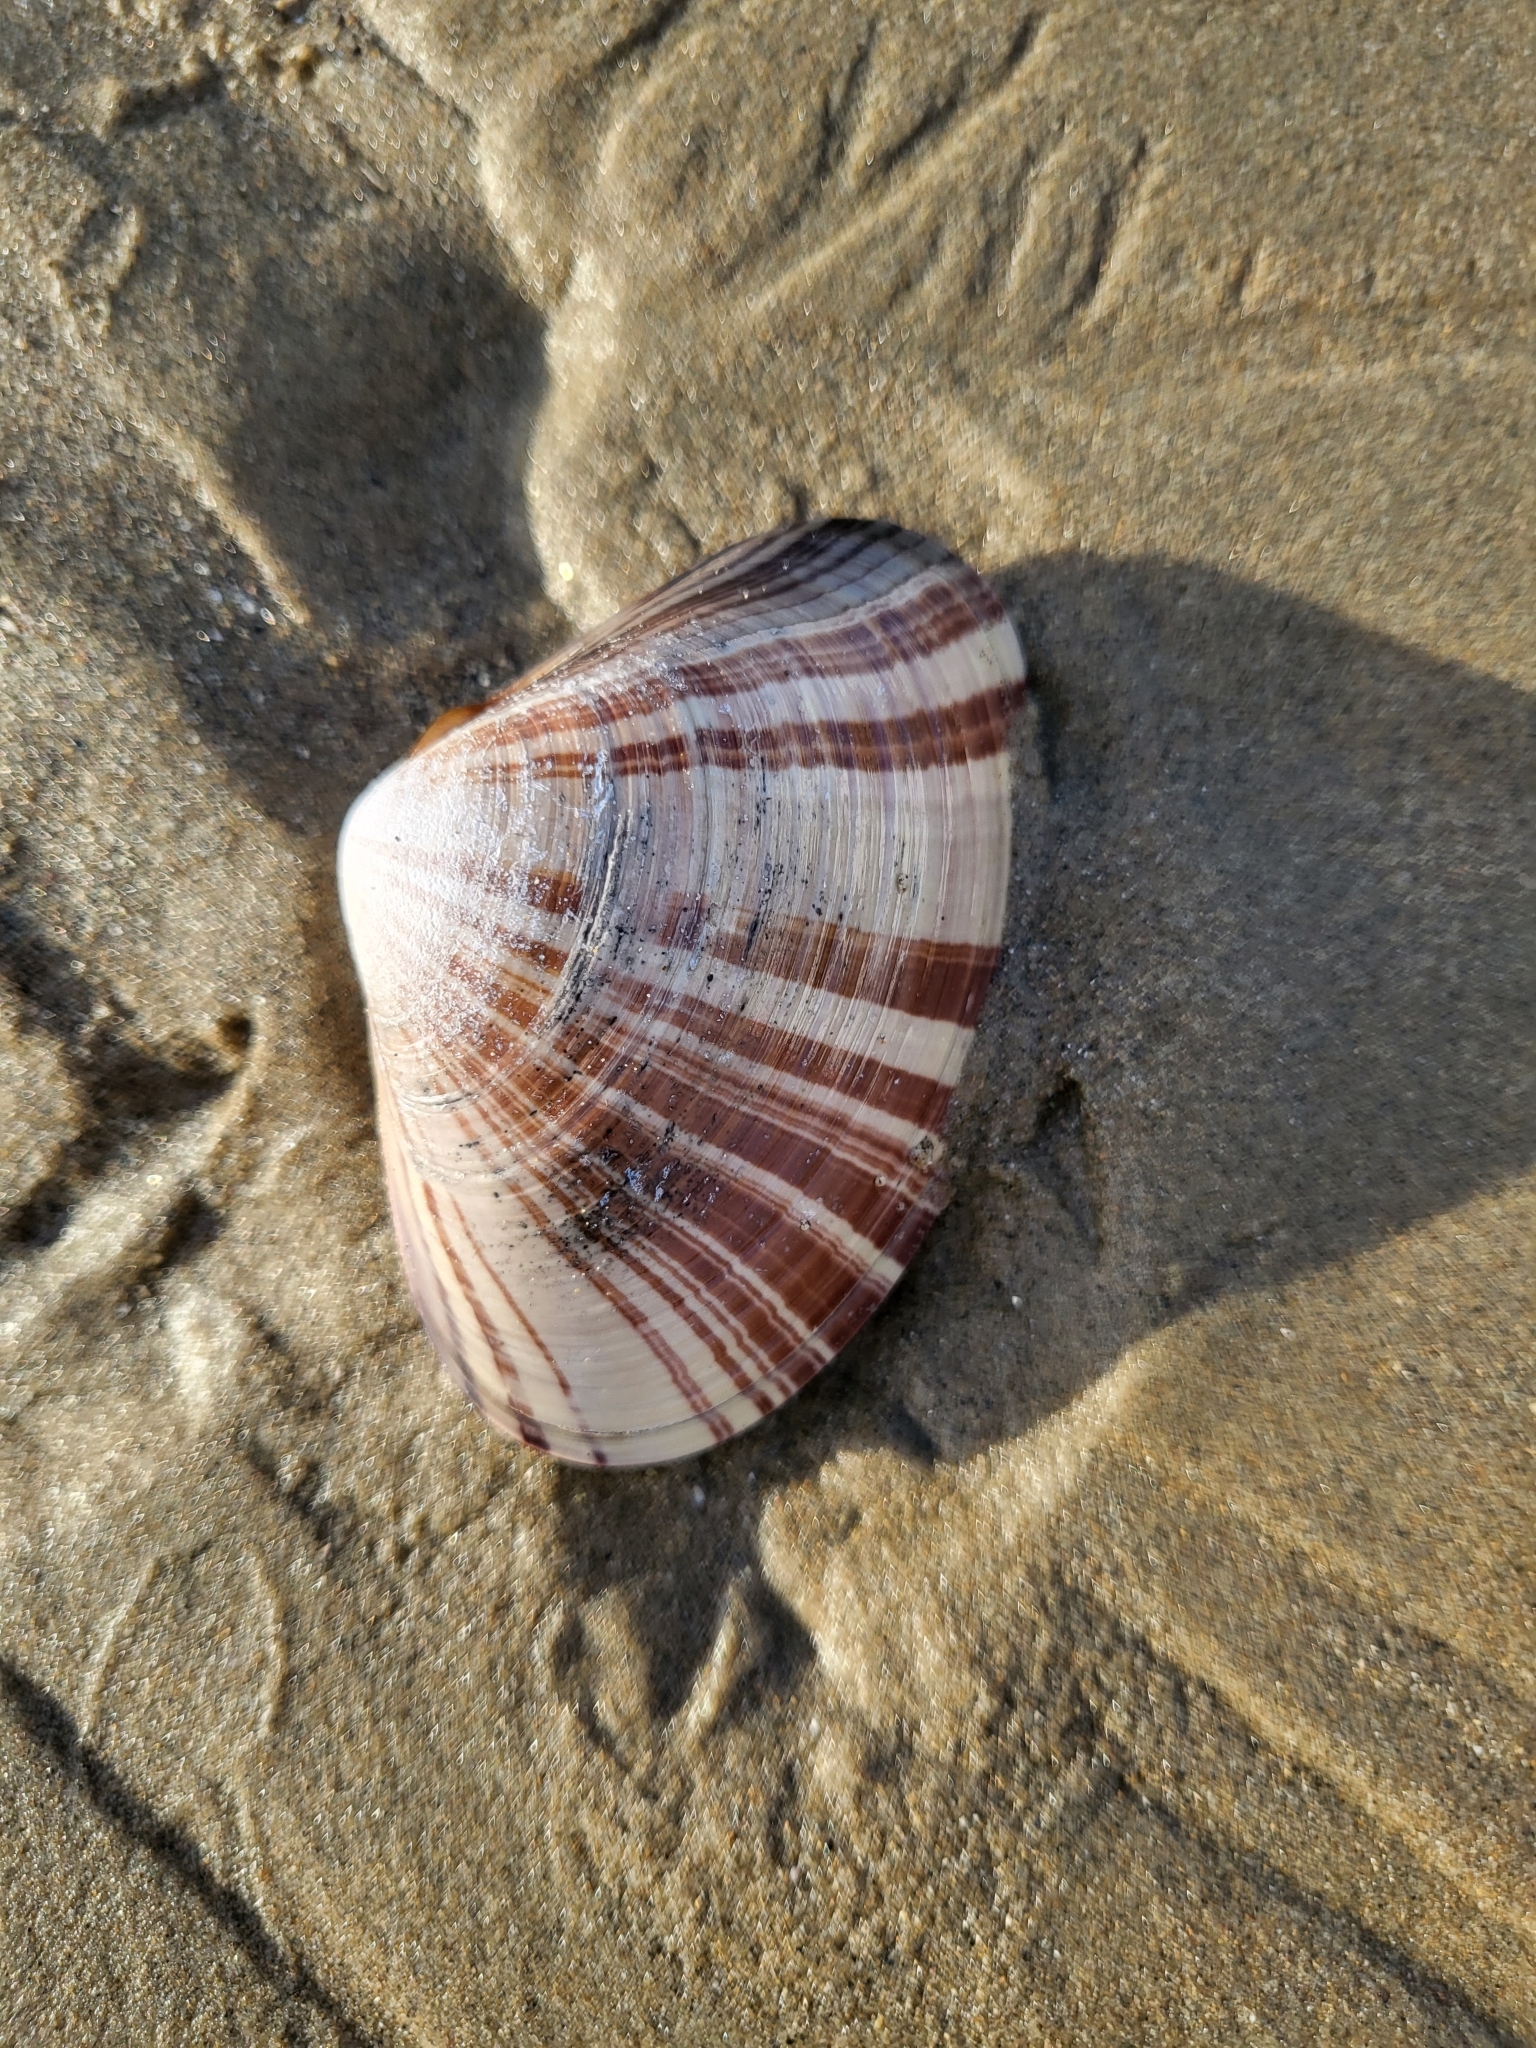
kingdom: Animalia
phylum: Mollusca
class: Bivalvia
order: Venerida
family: Veneridae
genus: Tivela
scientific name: Tivela stultorum
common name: Pismo clam
